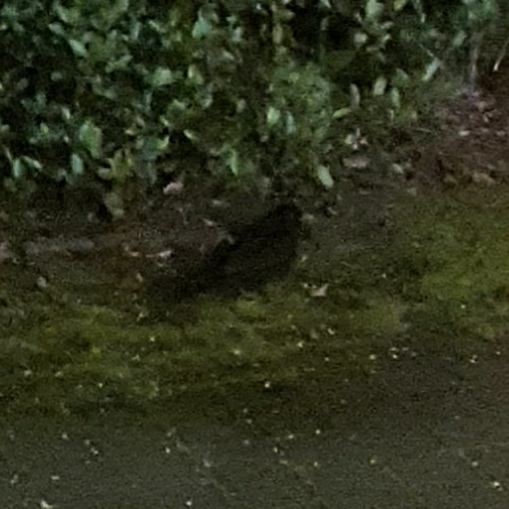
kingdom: Animalia
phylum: Chordata
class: Aves
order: Passeriformes
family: Turdidae
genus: Turdus
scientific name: Turdus merula
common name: Common blackbird
